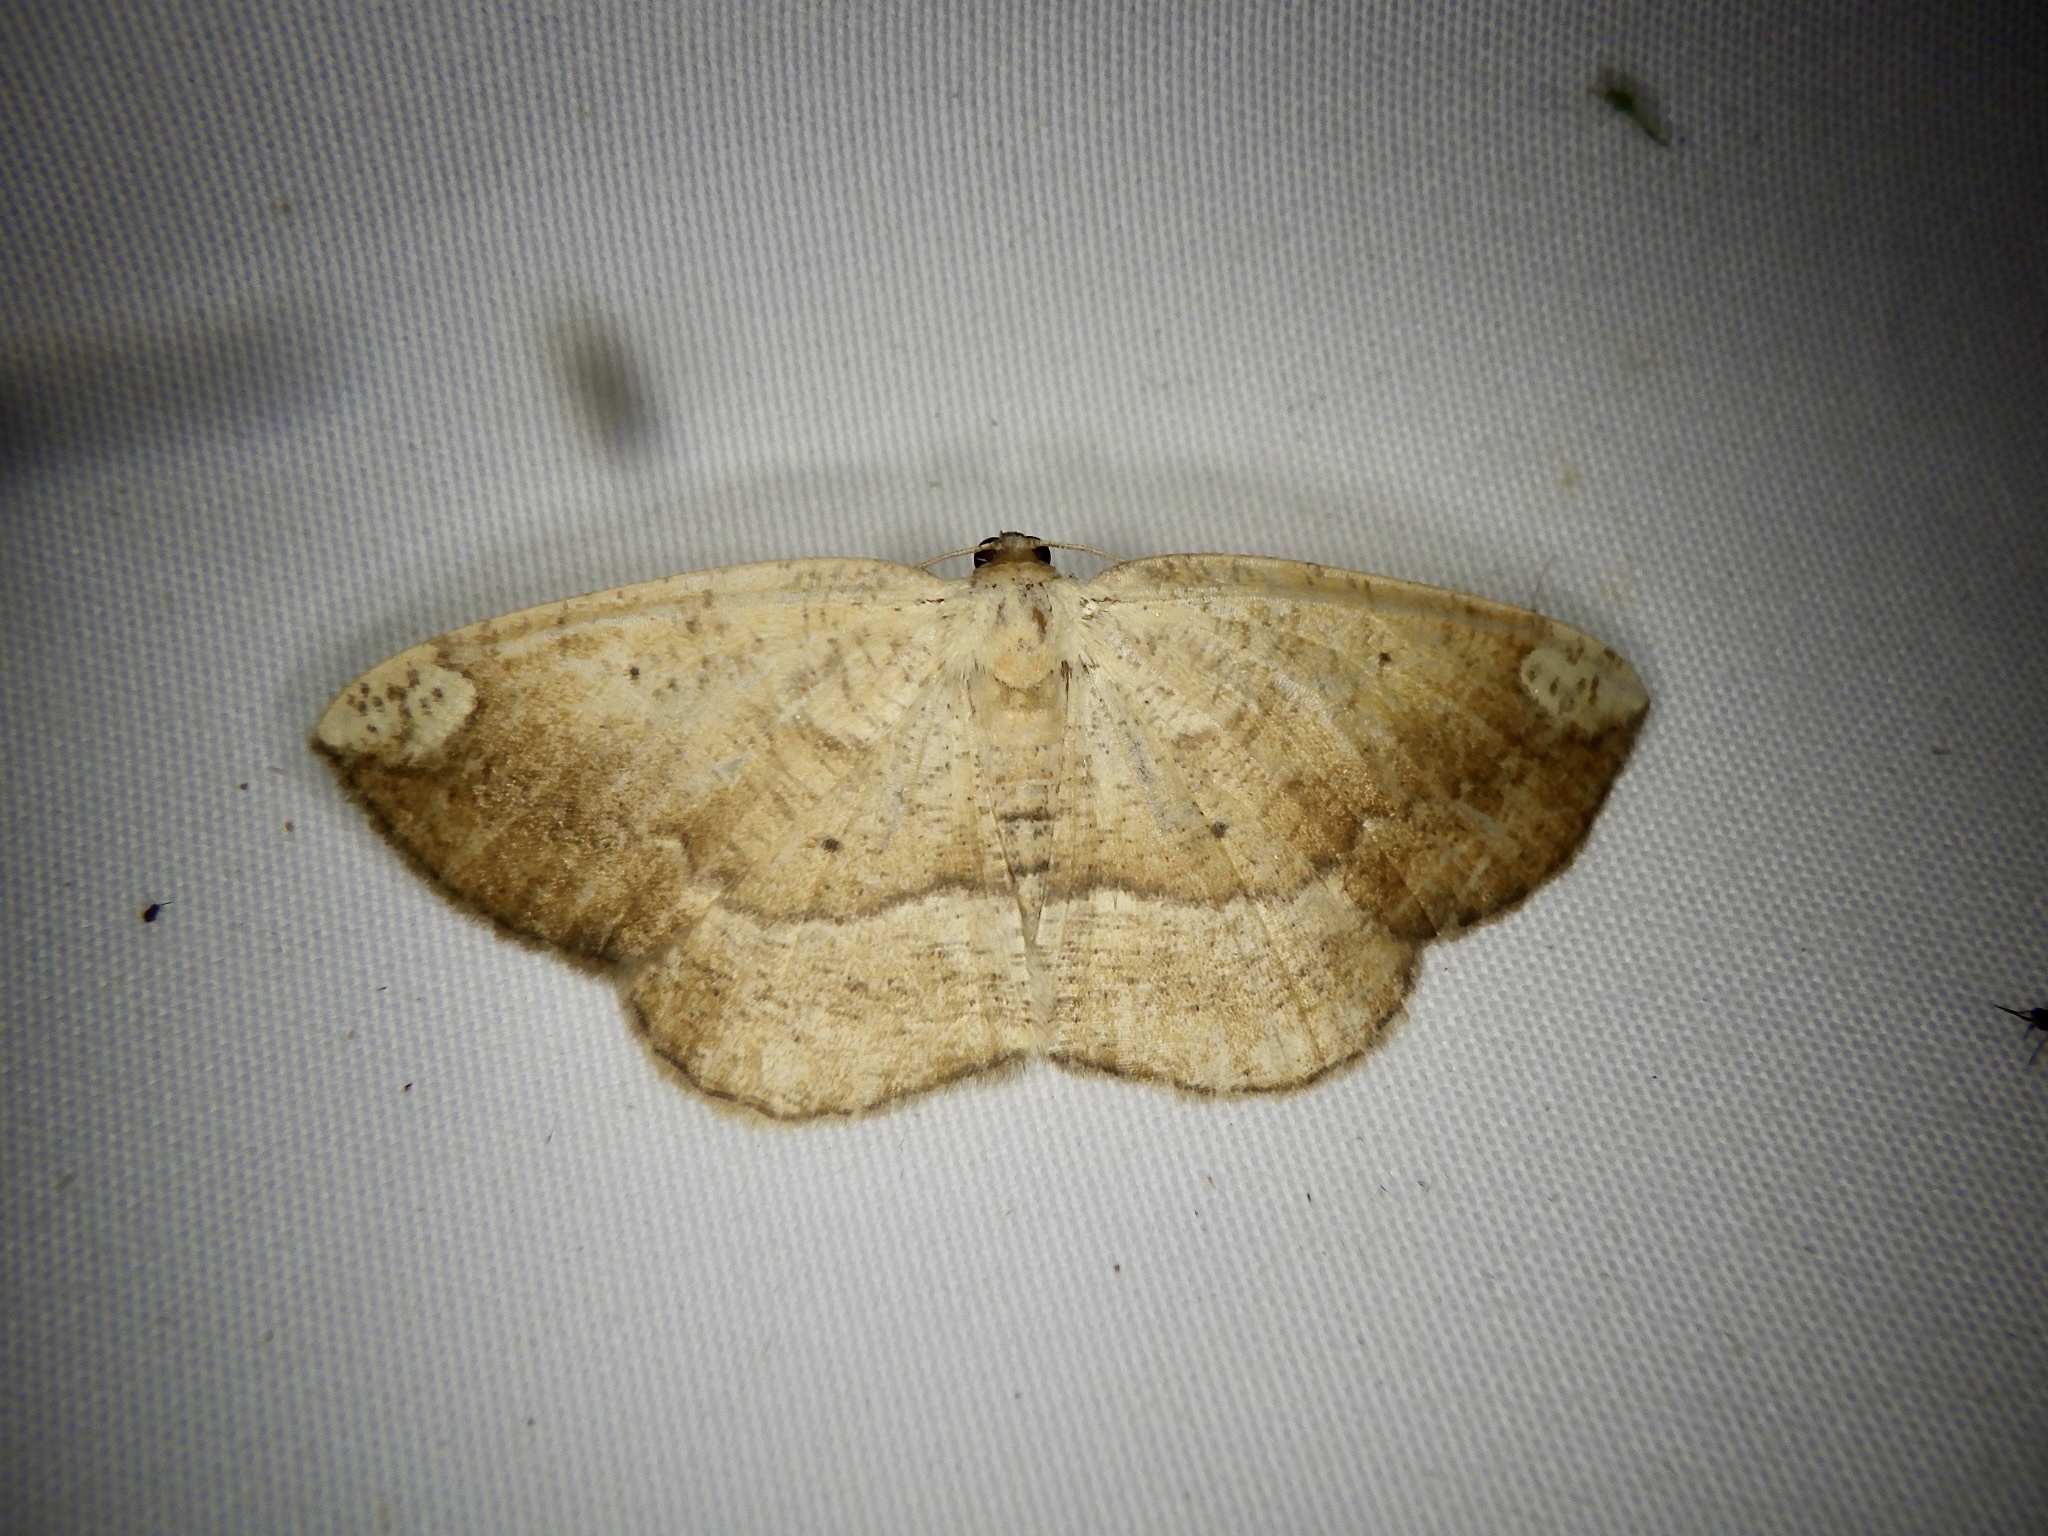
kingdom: Animalia
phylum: Arthropoda
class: Insecta
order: Lepidoptera
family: Geometridae
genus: Platycerota
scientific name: Platycerota incertaria
